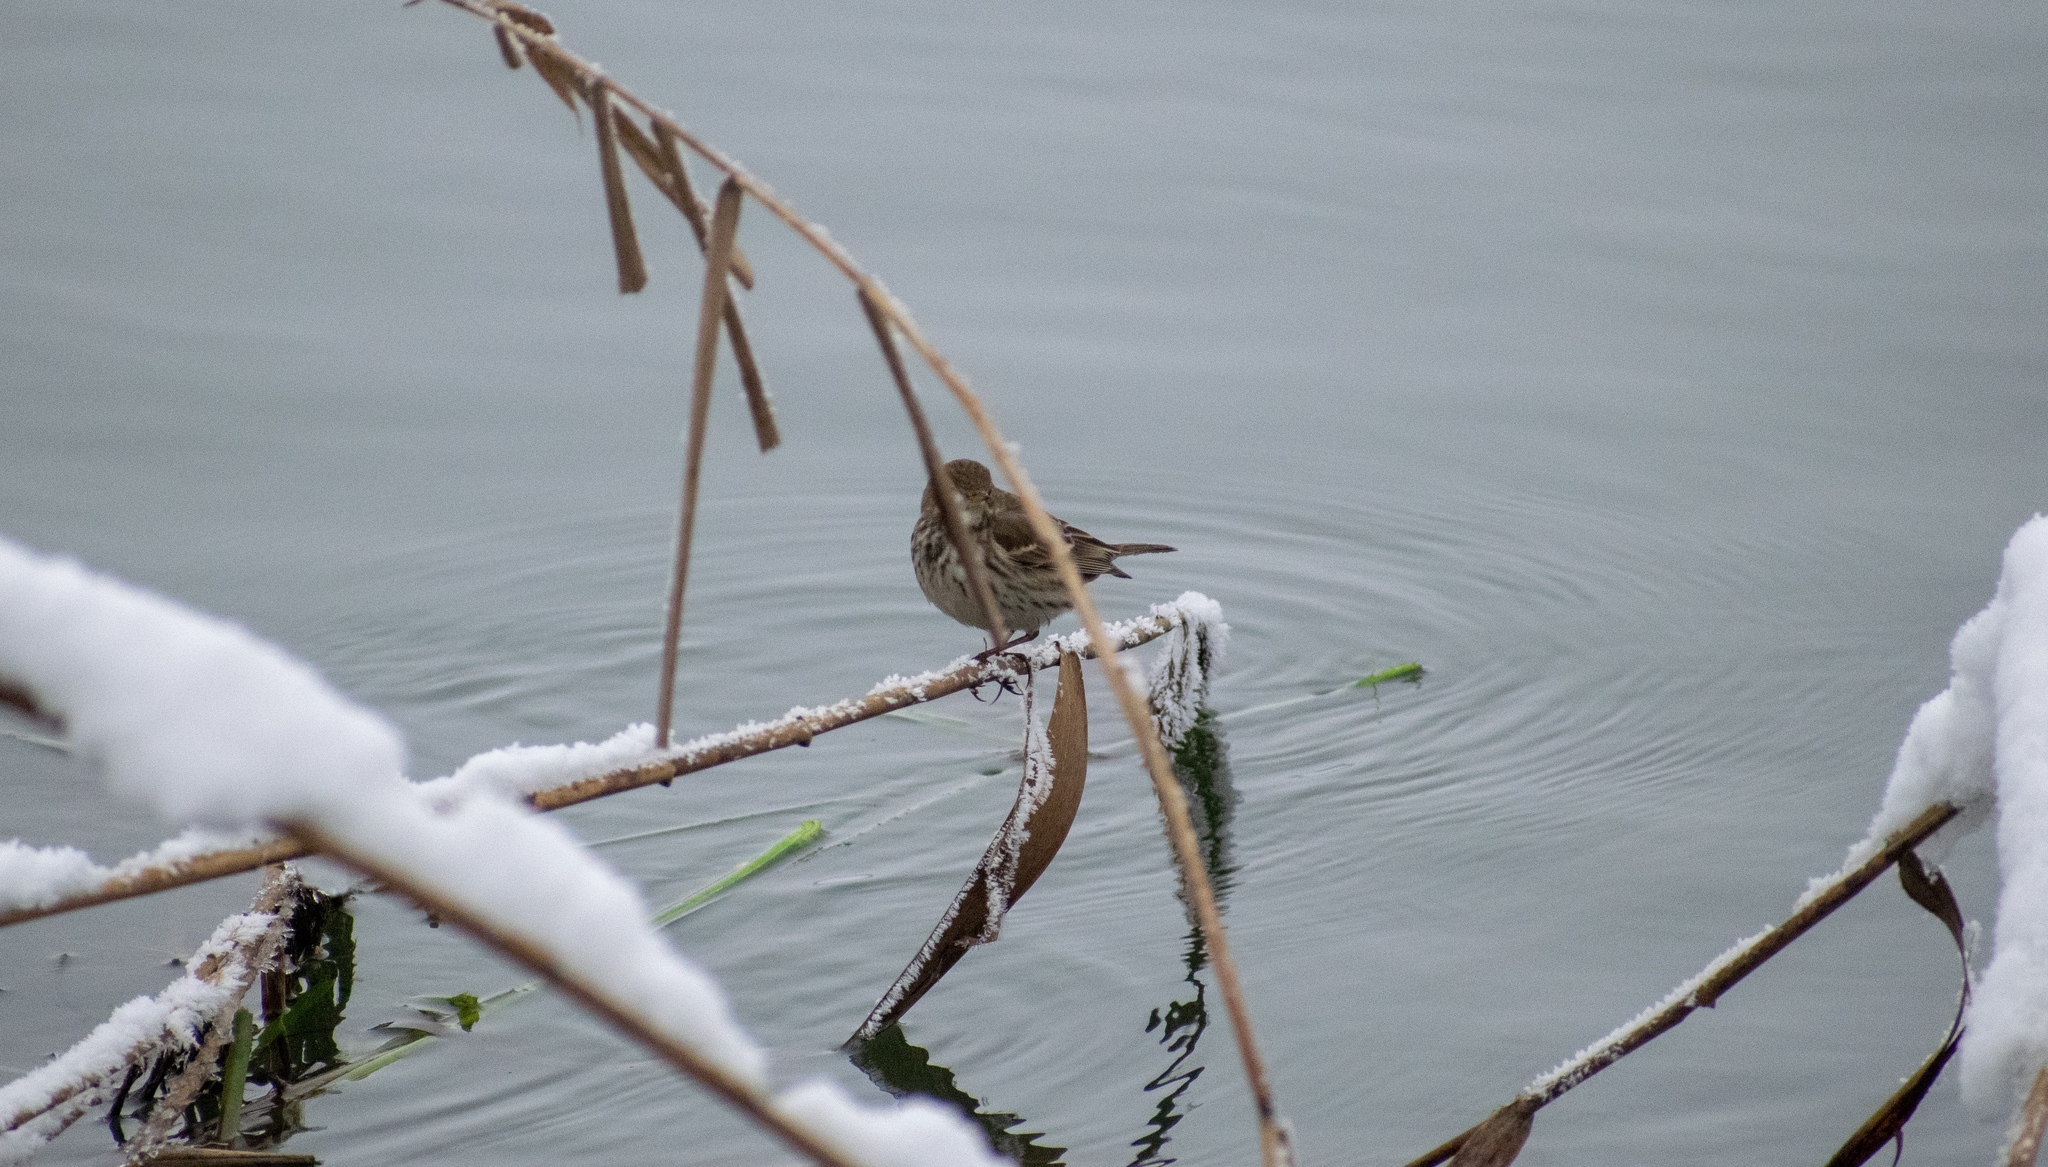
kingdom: Animalia
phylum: Chordata
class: Aves
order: Passeriformes
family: Motacillidae
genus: Anthus
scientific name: Anthus spinoletta
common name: Water pipit
